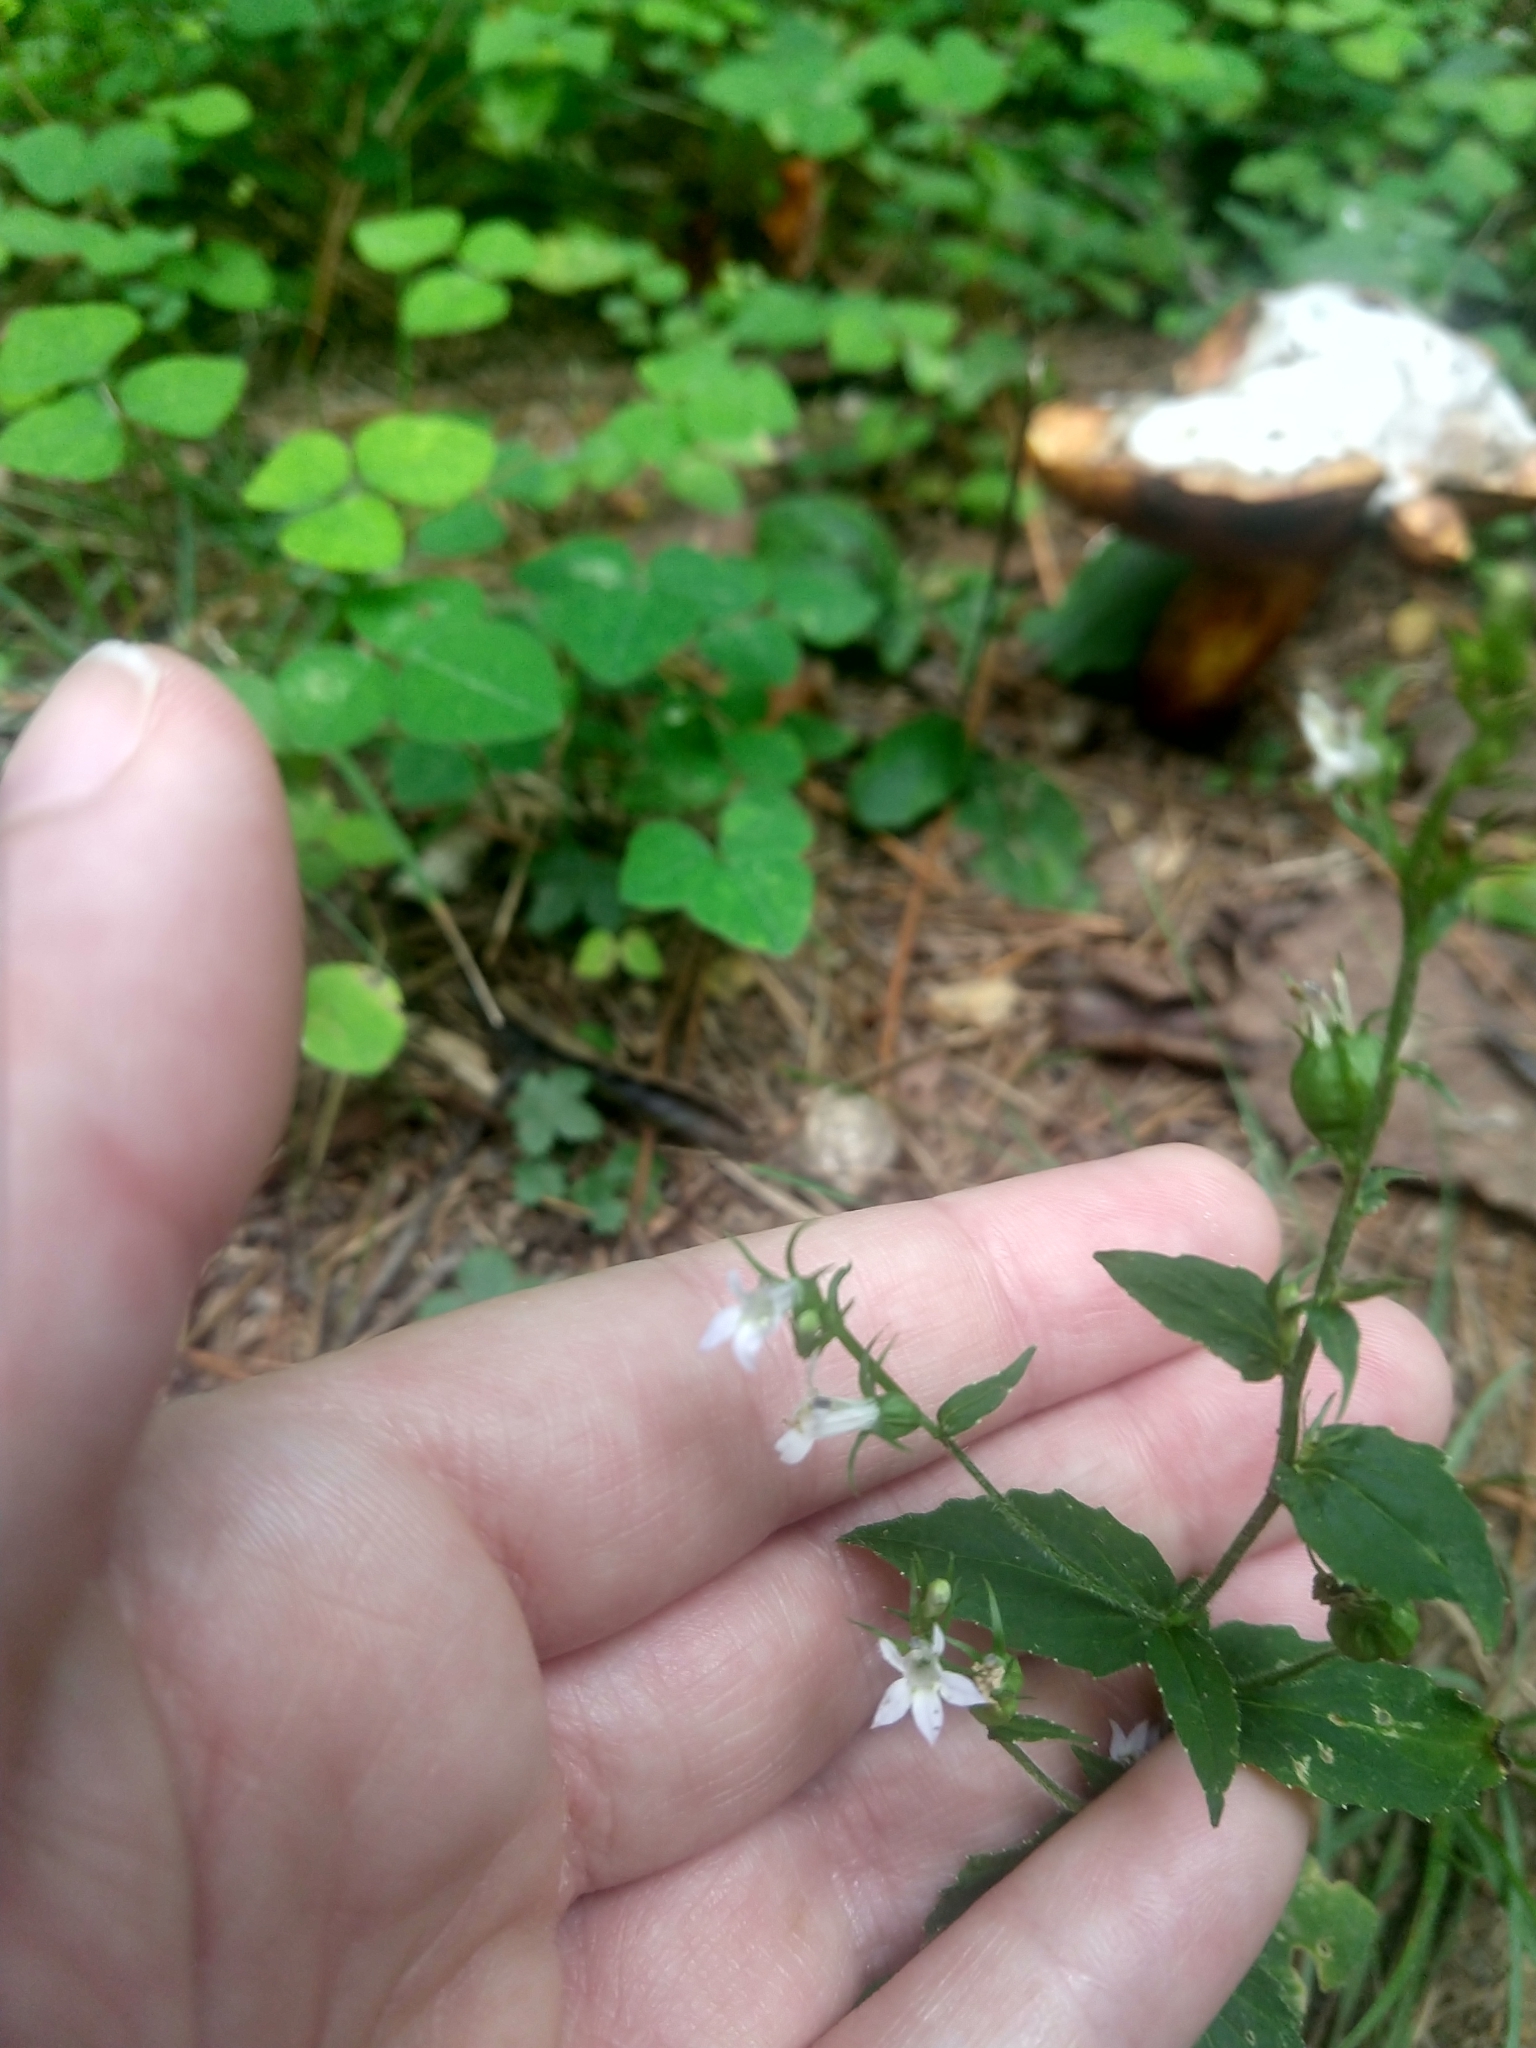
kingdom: Plantae
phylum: Tracheophyta
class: Magnoliopsida
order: Asterales
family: Campanulaceae
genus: Lobelia
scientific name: Lobelia inflata
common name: Indian tobacco
